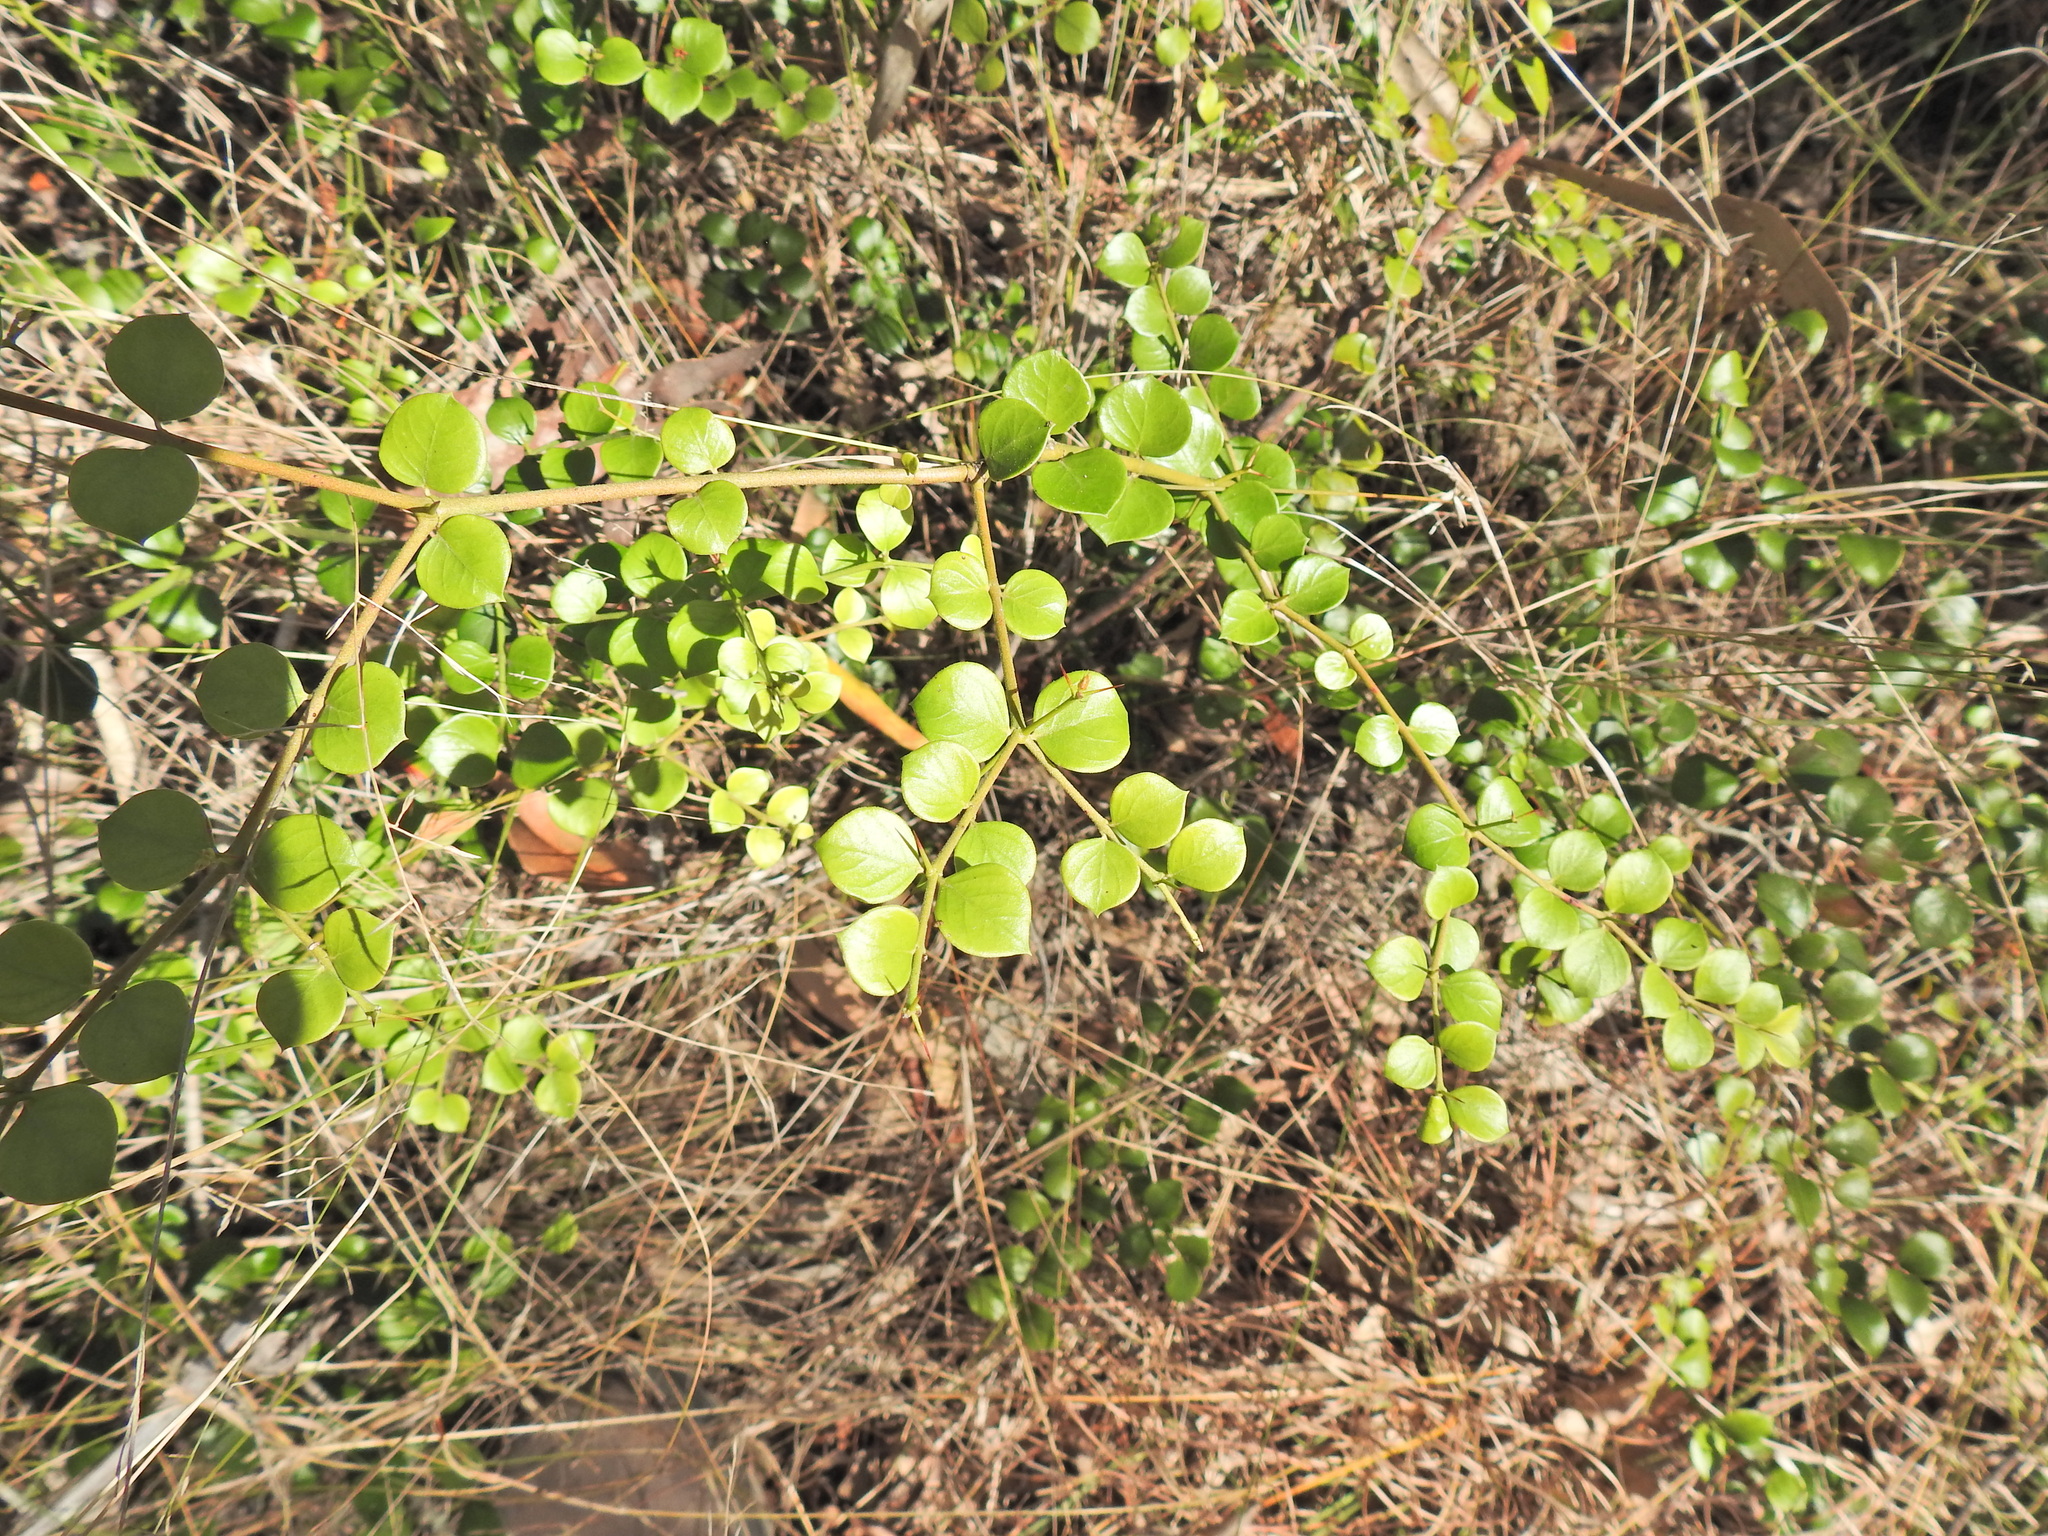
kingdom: Plantae
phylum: Tracheophyta
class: Magnoliopsida
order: Gentianales
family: Apocynaceae
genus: Carissa
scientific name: Carissa ovata
